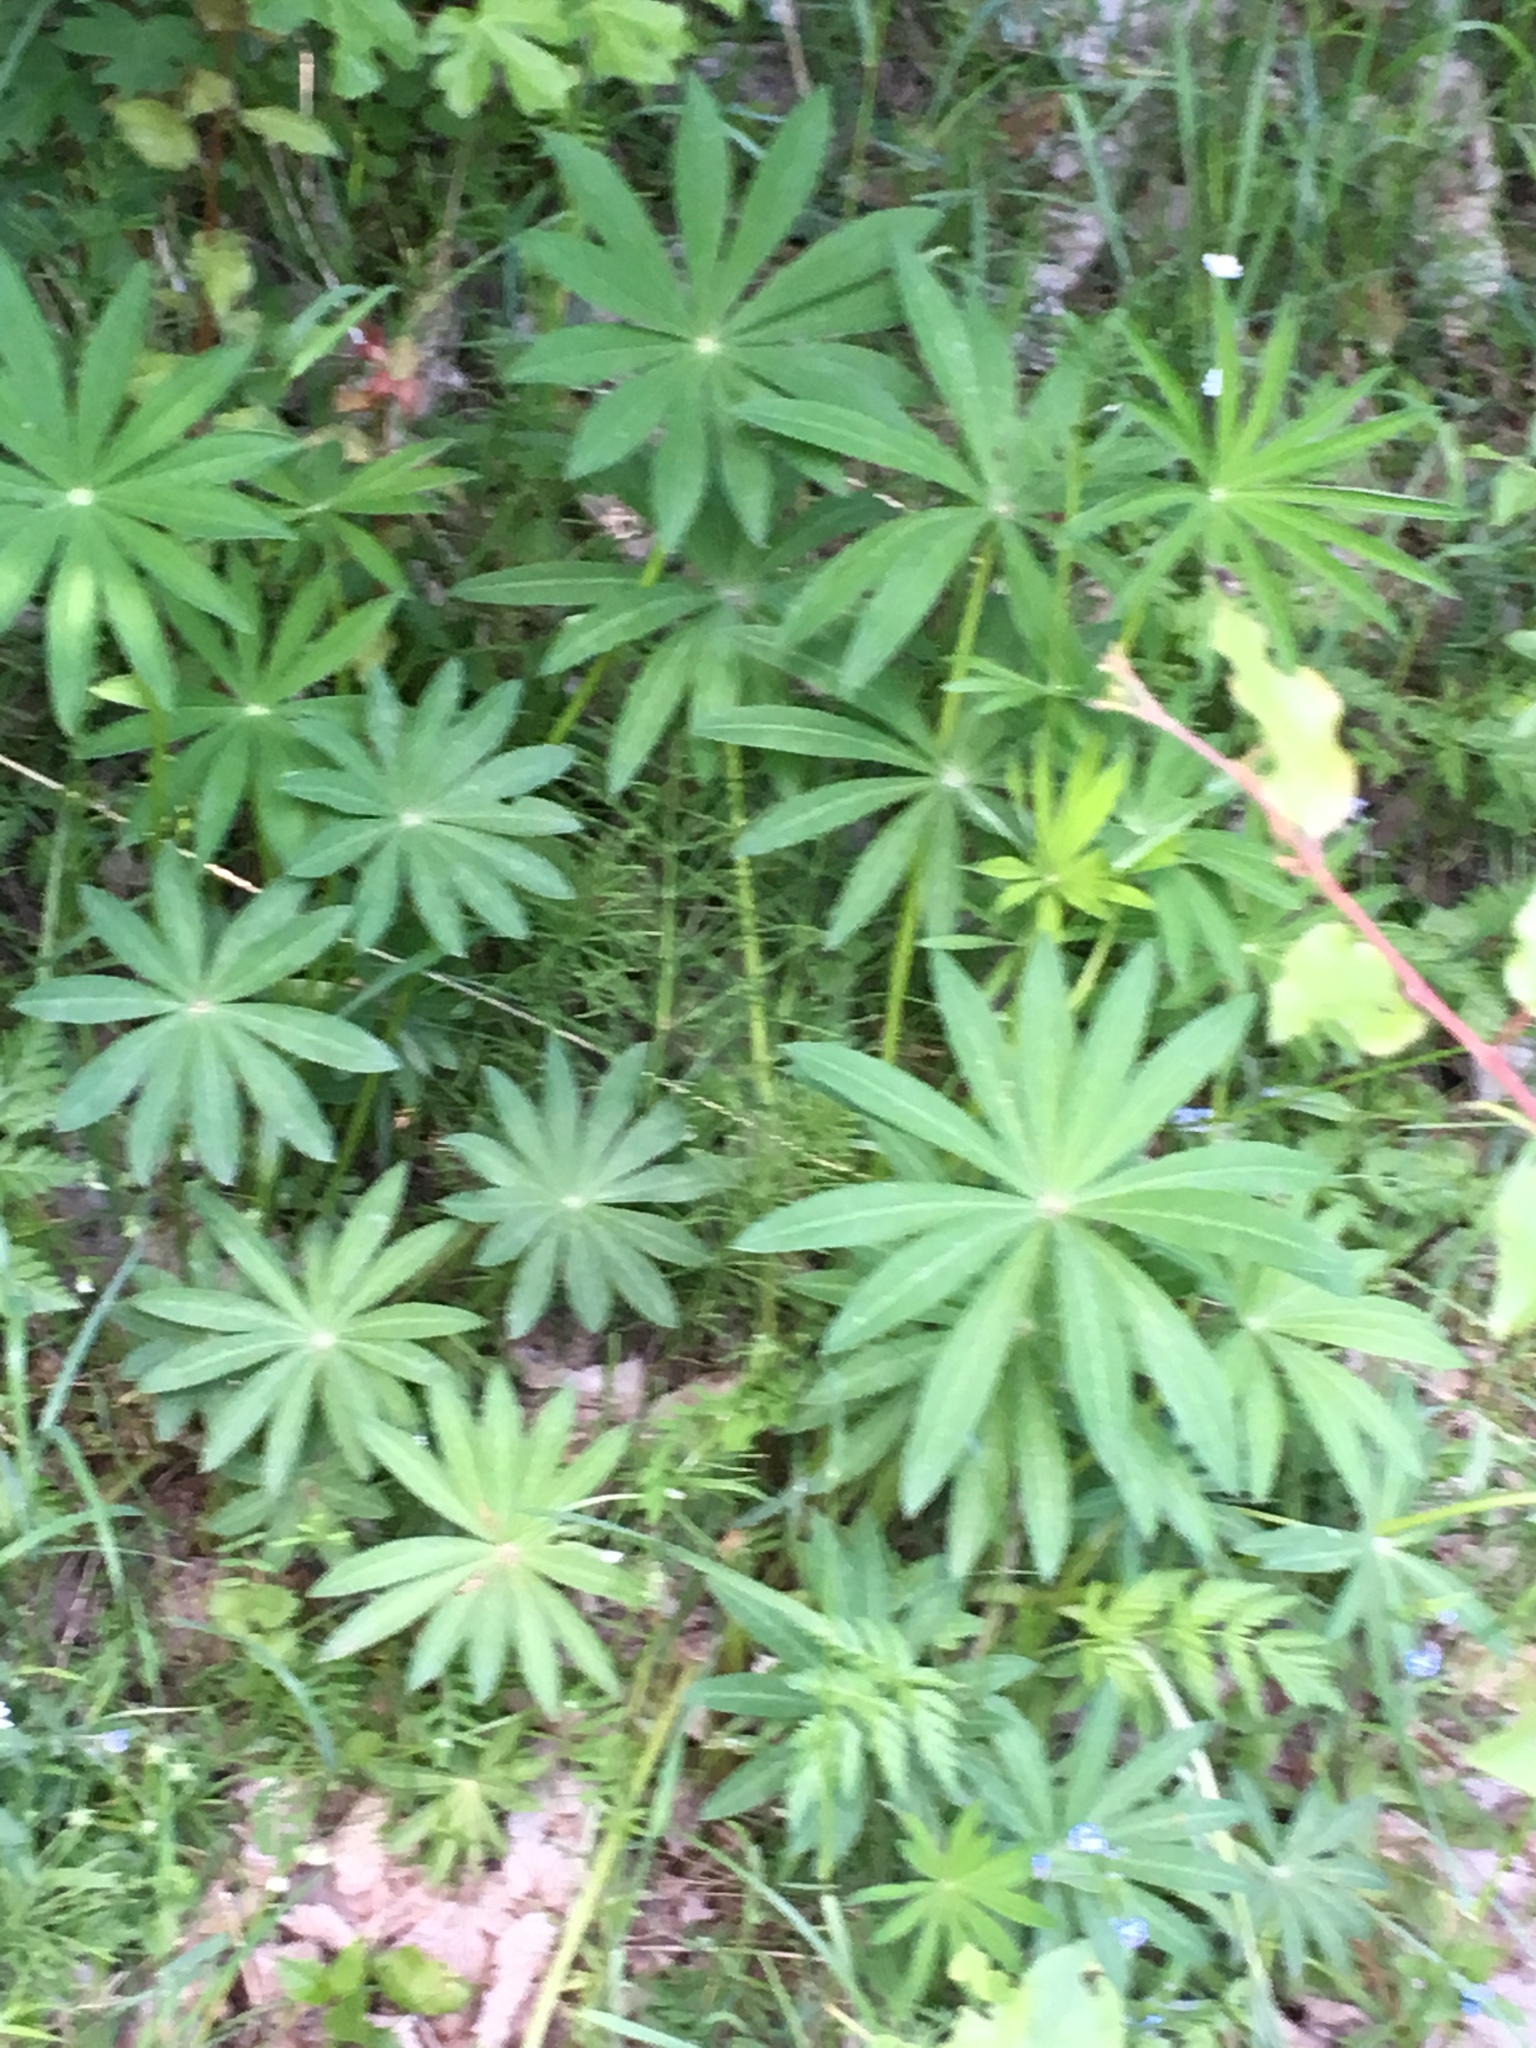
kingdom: Plantae
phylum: Tracheophyta
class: Magnoliopsida
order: Fabales
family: Fabaceae
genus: Lupinus
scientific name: Lupinus polyphyllus
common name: Garden lupin
